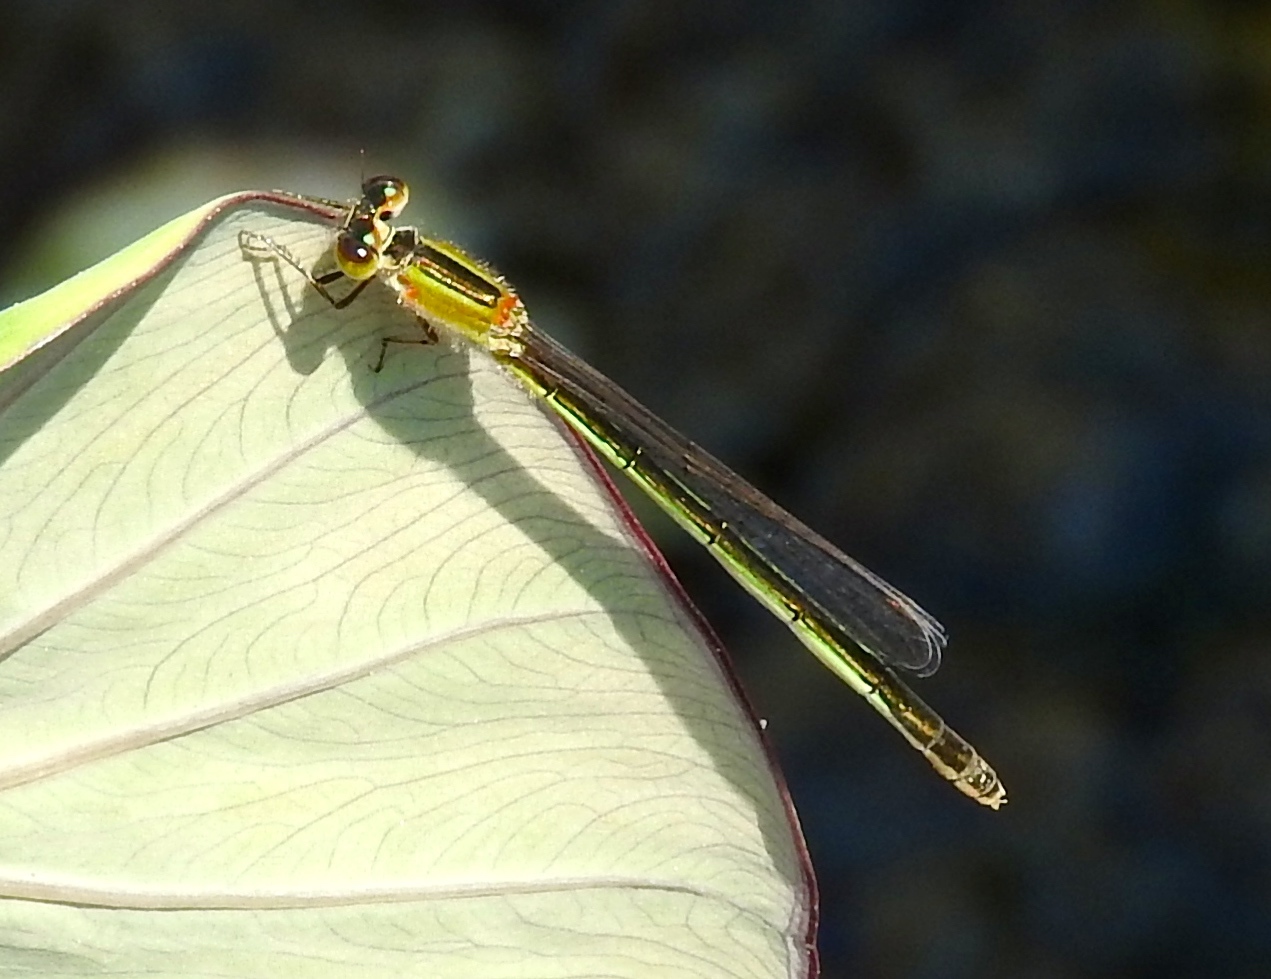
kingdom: Animalia
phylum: Arthropoda
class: Insecta
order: Odonata
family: Coenagrionidae
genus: Ischnura
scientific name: Ischnura ramburii
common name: Rambur's forktail
